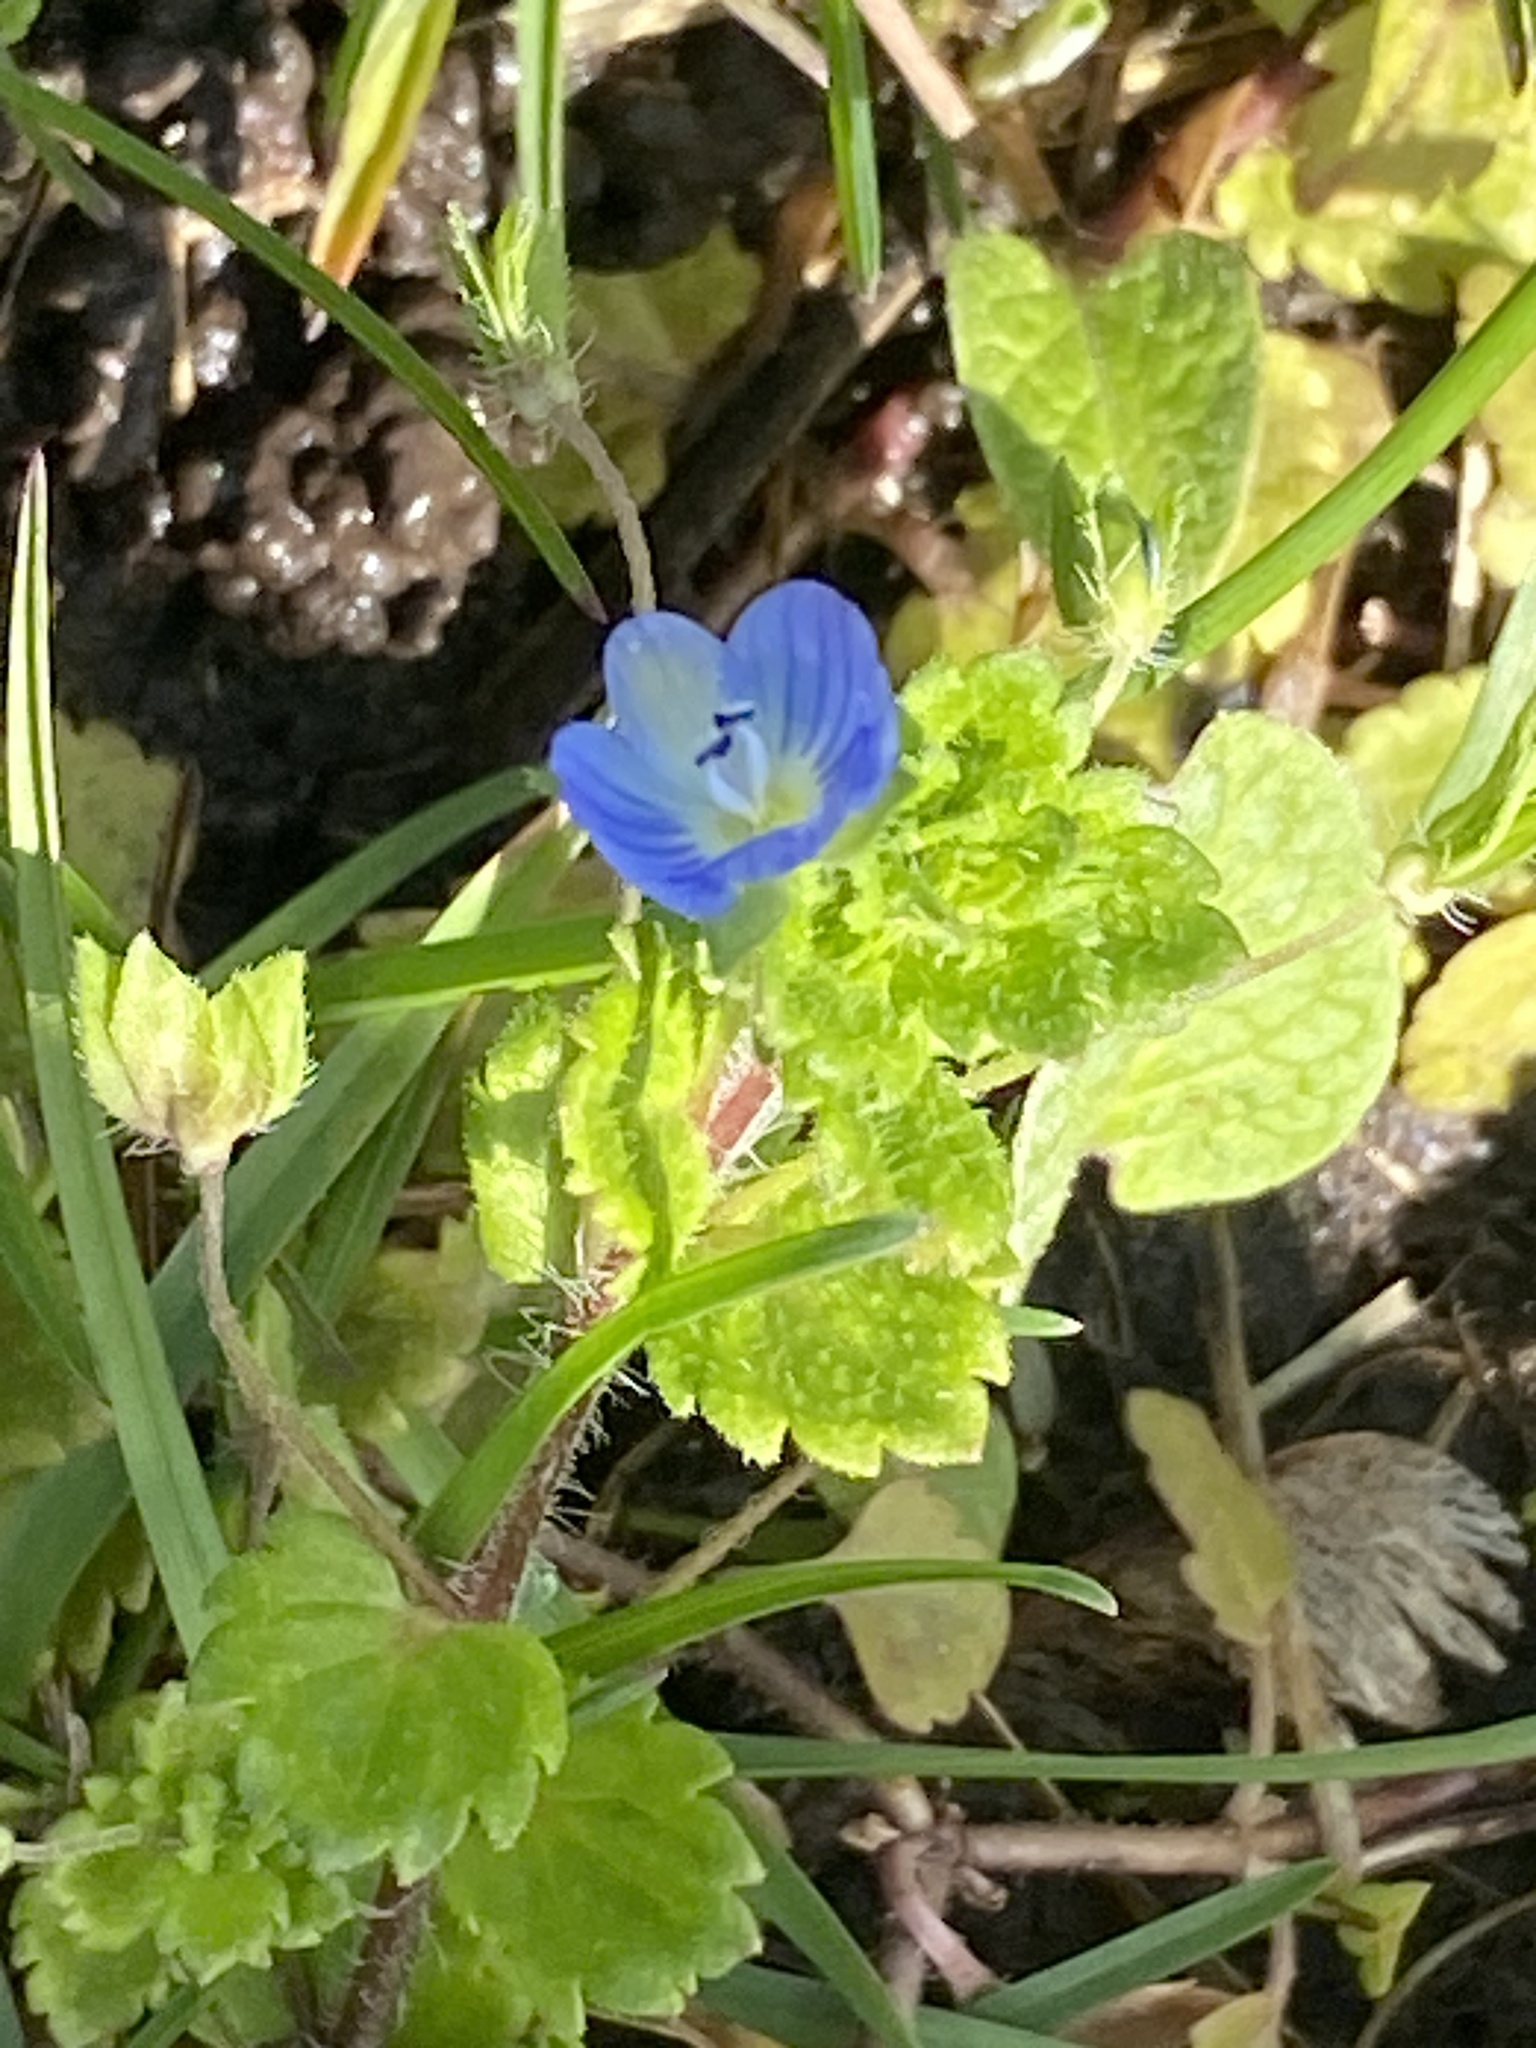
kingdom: Plantae
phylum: Tracheophyta
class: Magnoliopsida
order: Lamiales
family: Plantaginaceae
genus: Veronica
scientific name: Veronica persica
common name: Common field-speedwell
